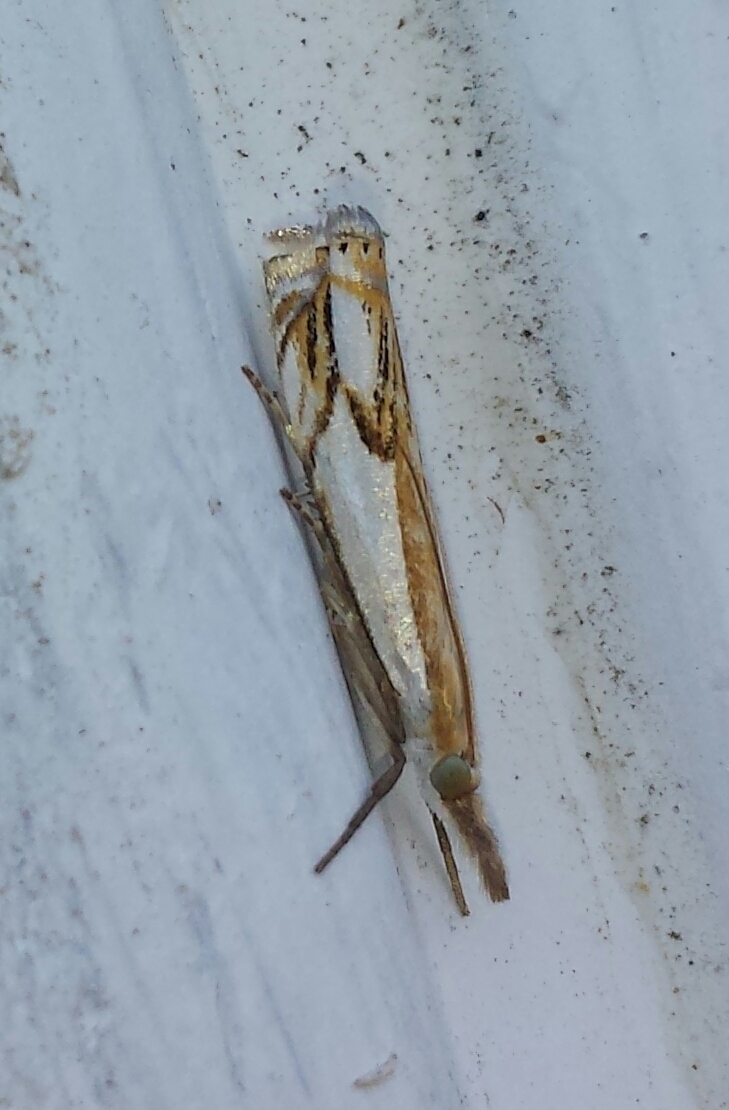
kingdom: Animalia
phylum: Arthropoda
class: Insecta
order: Lepidoptera
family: Crambidae
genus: Crambus
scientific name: Crambus agitatellus
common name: Double-banded grass-veneer
